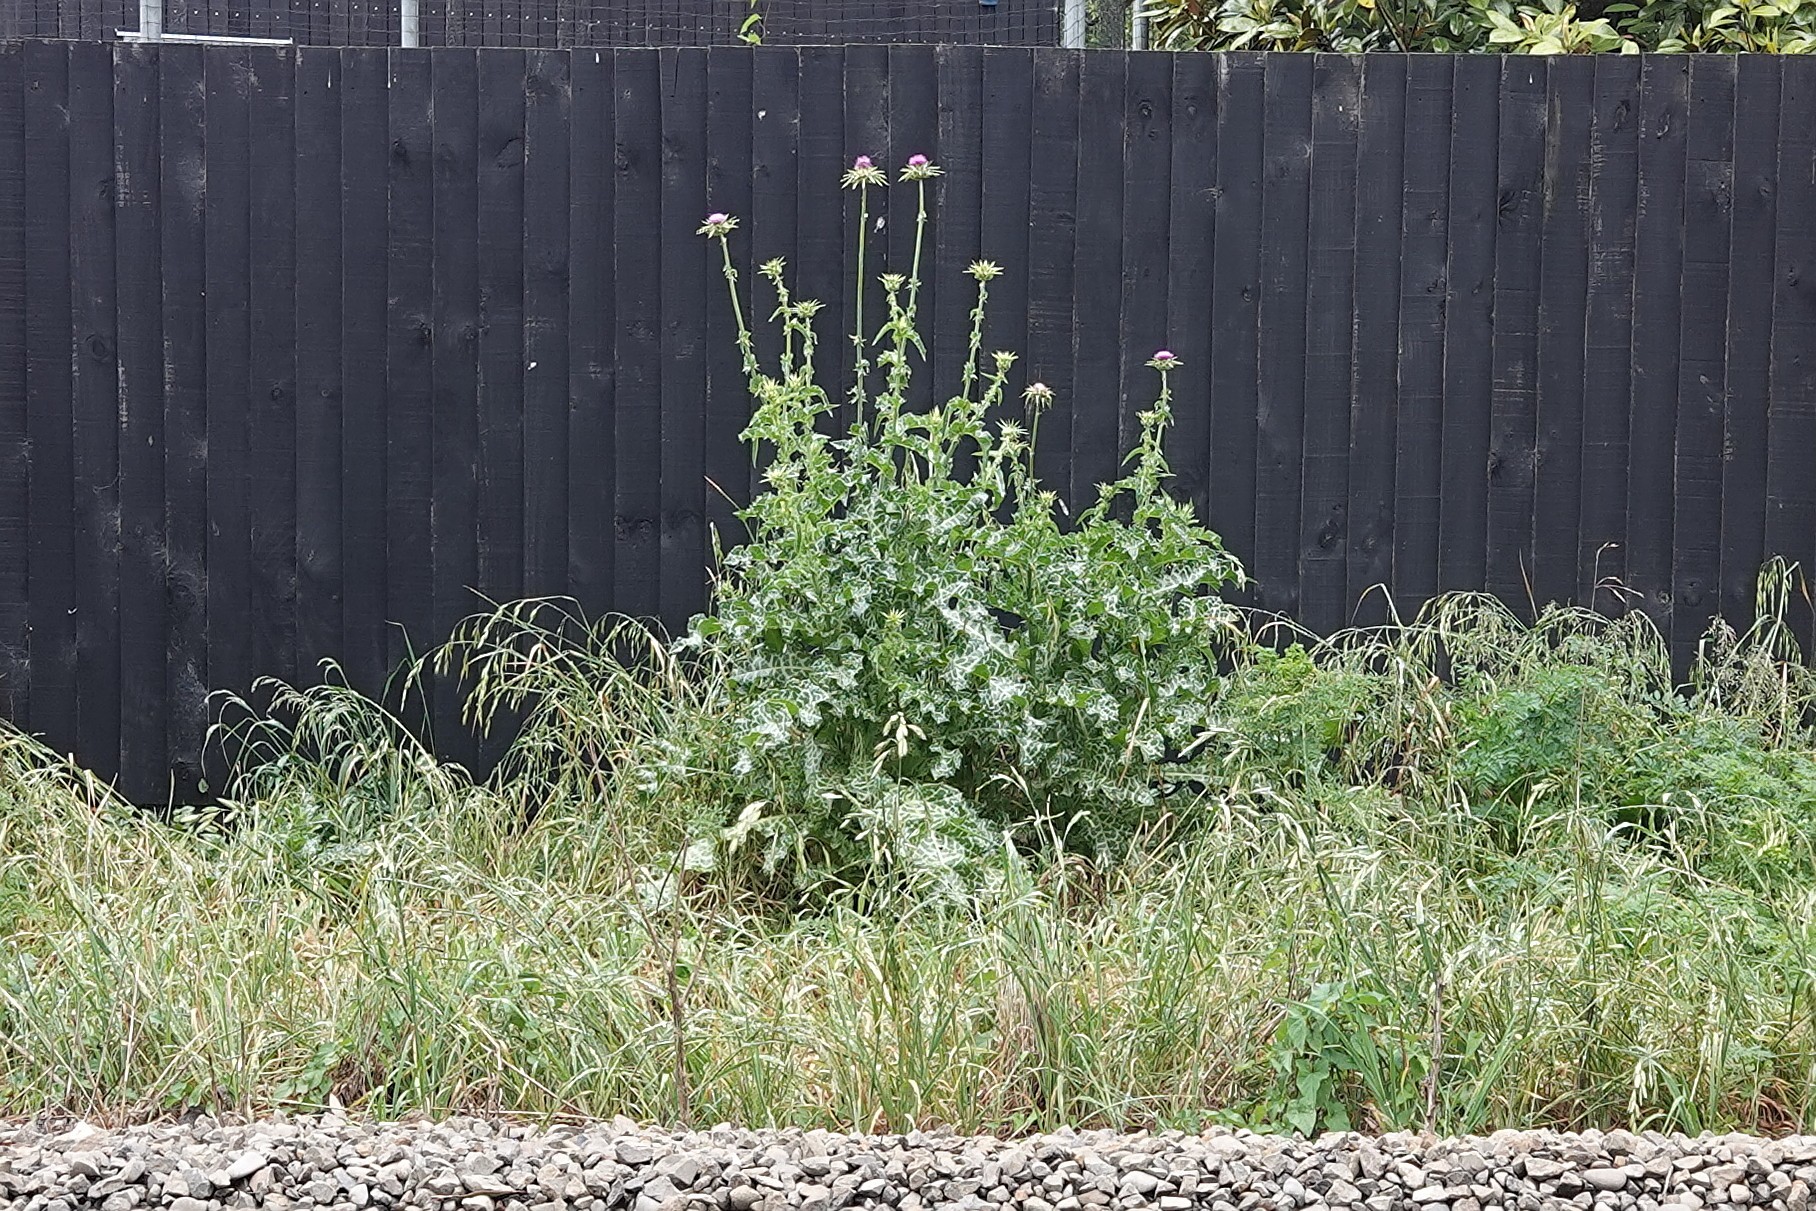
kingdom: Plantae
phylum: Tracheophyta
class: Magnoliopsida
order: Asterales
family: Asteraceae
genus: Silybum
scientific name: Silybum marianum
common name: Milk thistle
